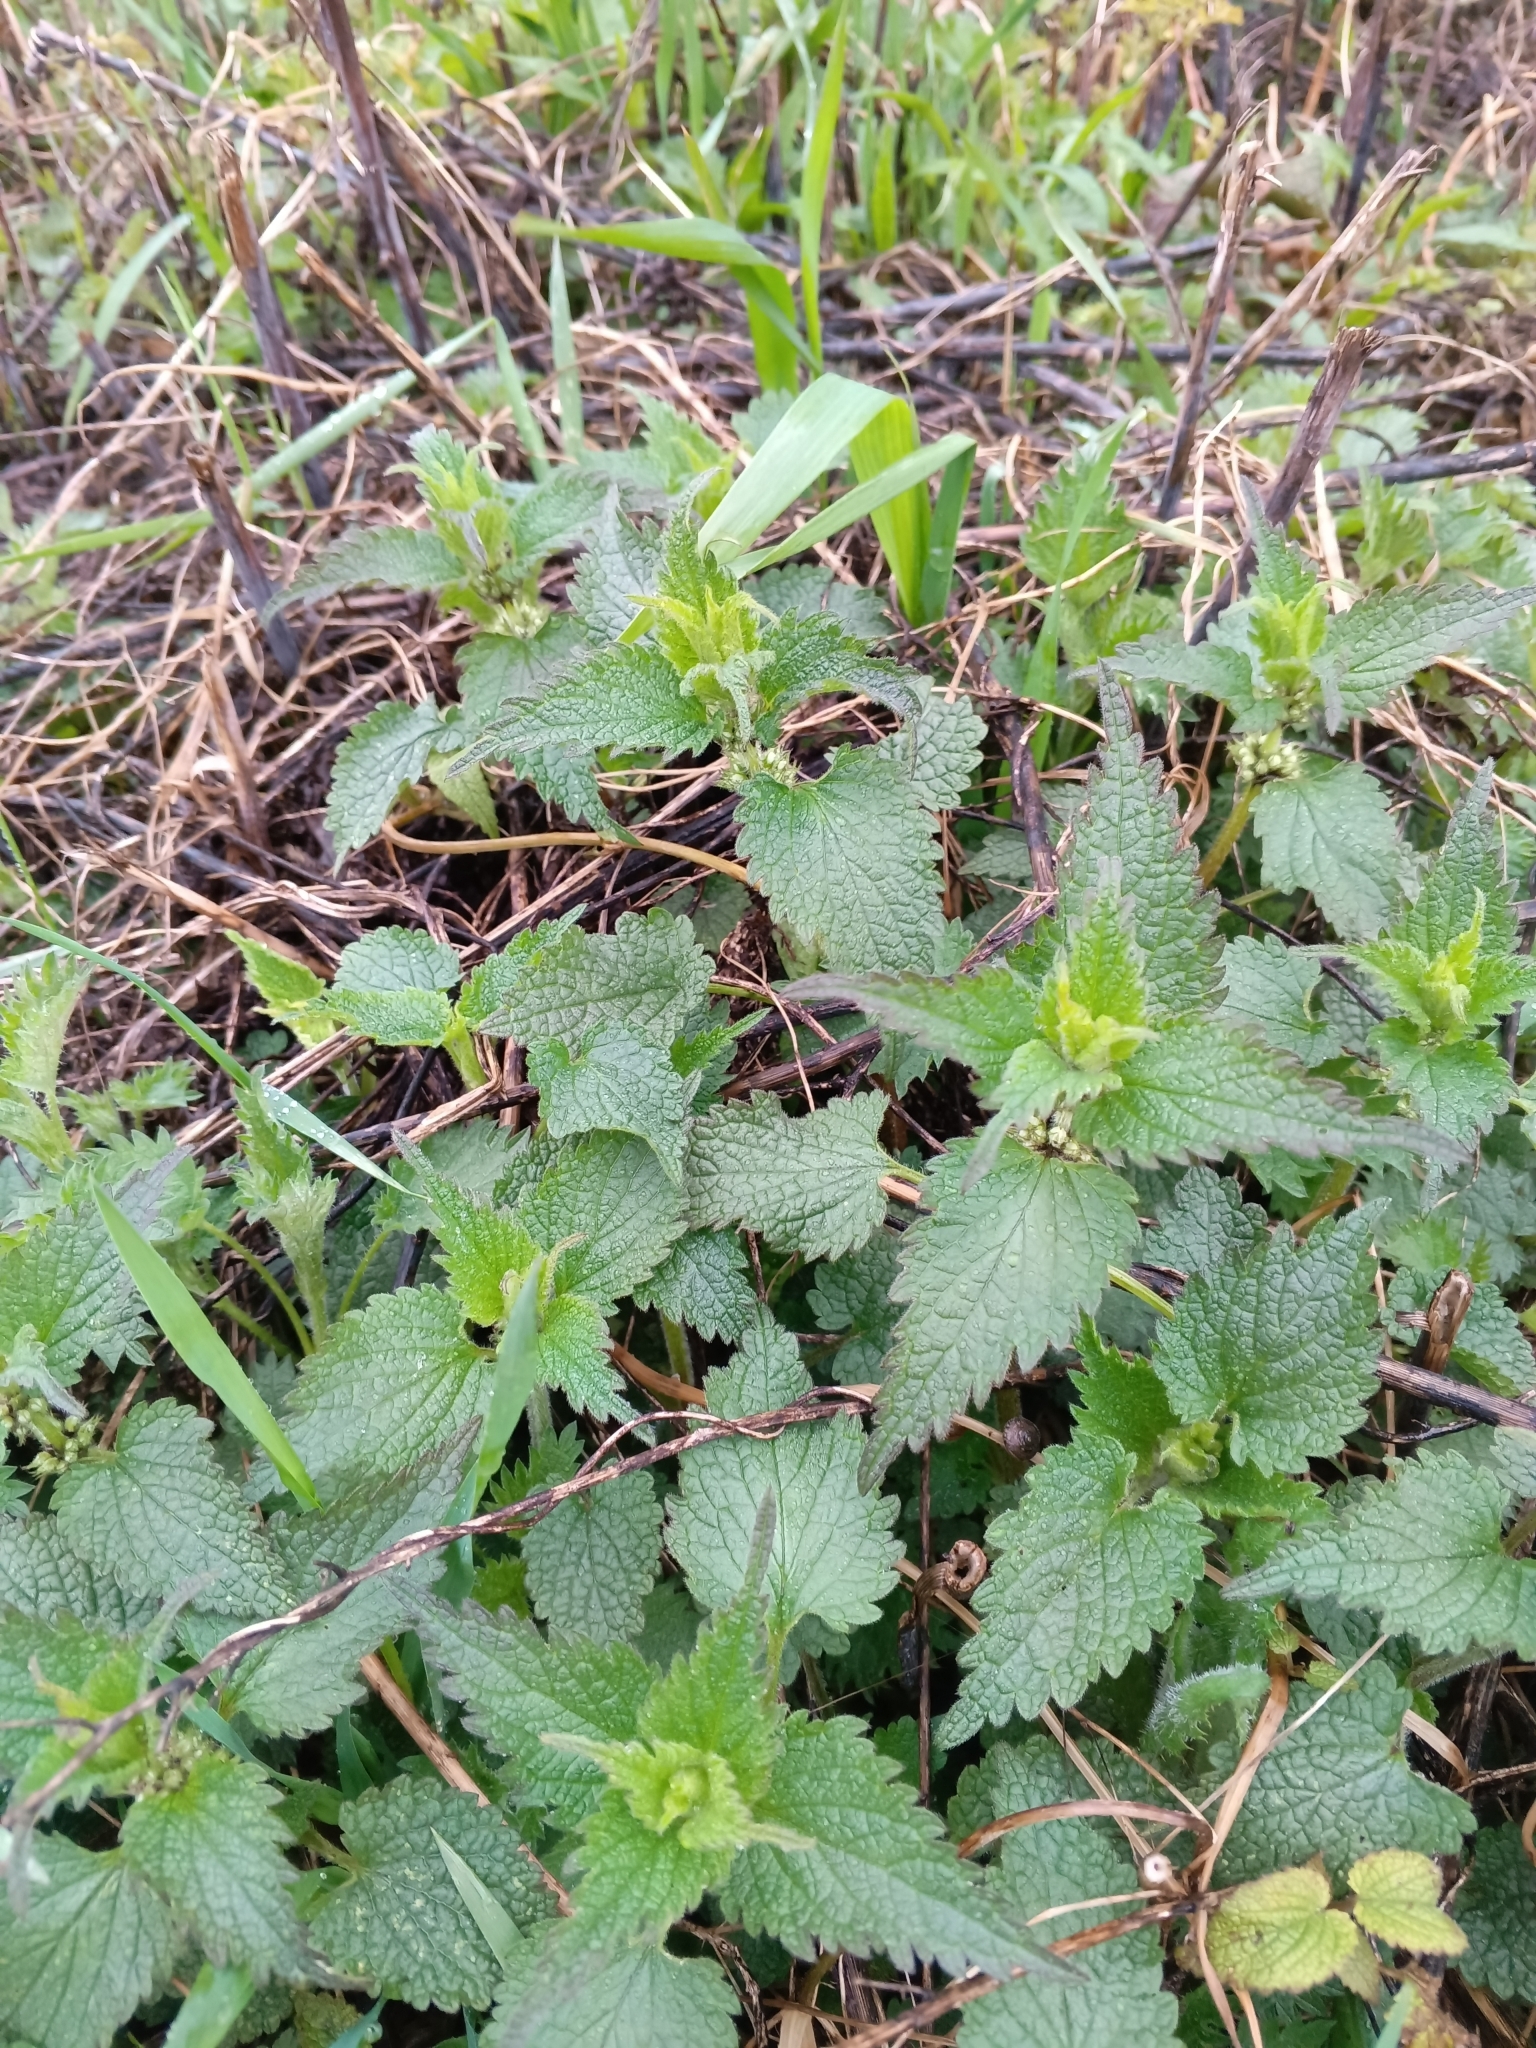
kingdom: Plantae
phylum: Tracheophyta
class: Magnoliopsida
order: Lamiales
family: Lamiaceae
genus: Lamium
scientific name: Lamium album
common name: White dead-nettle
